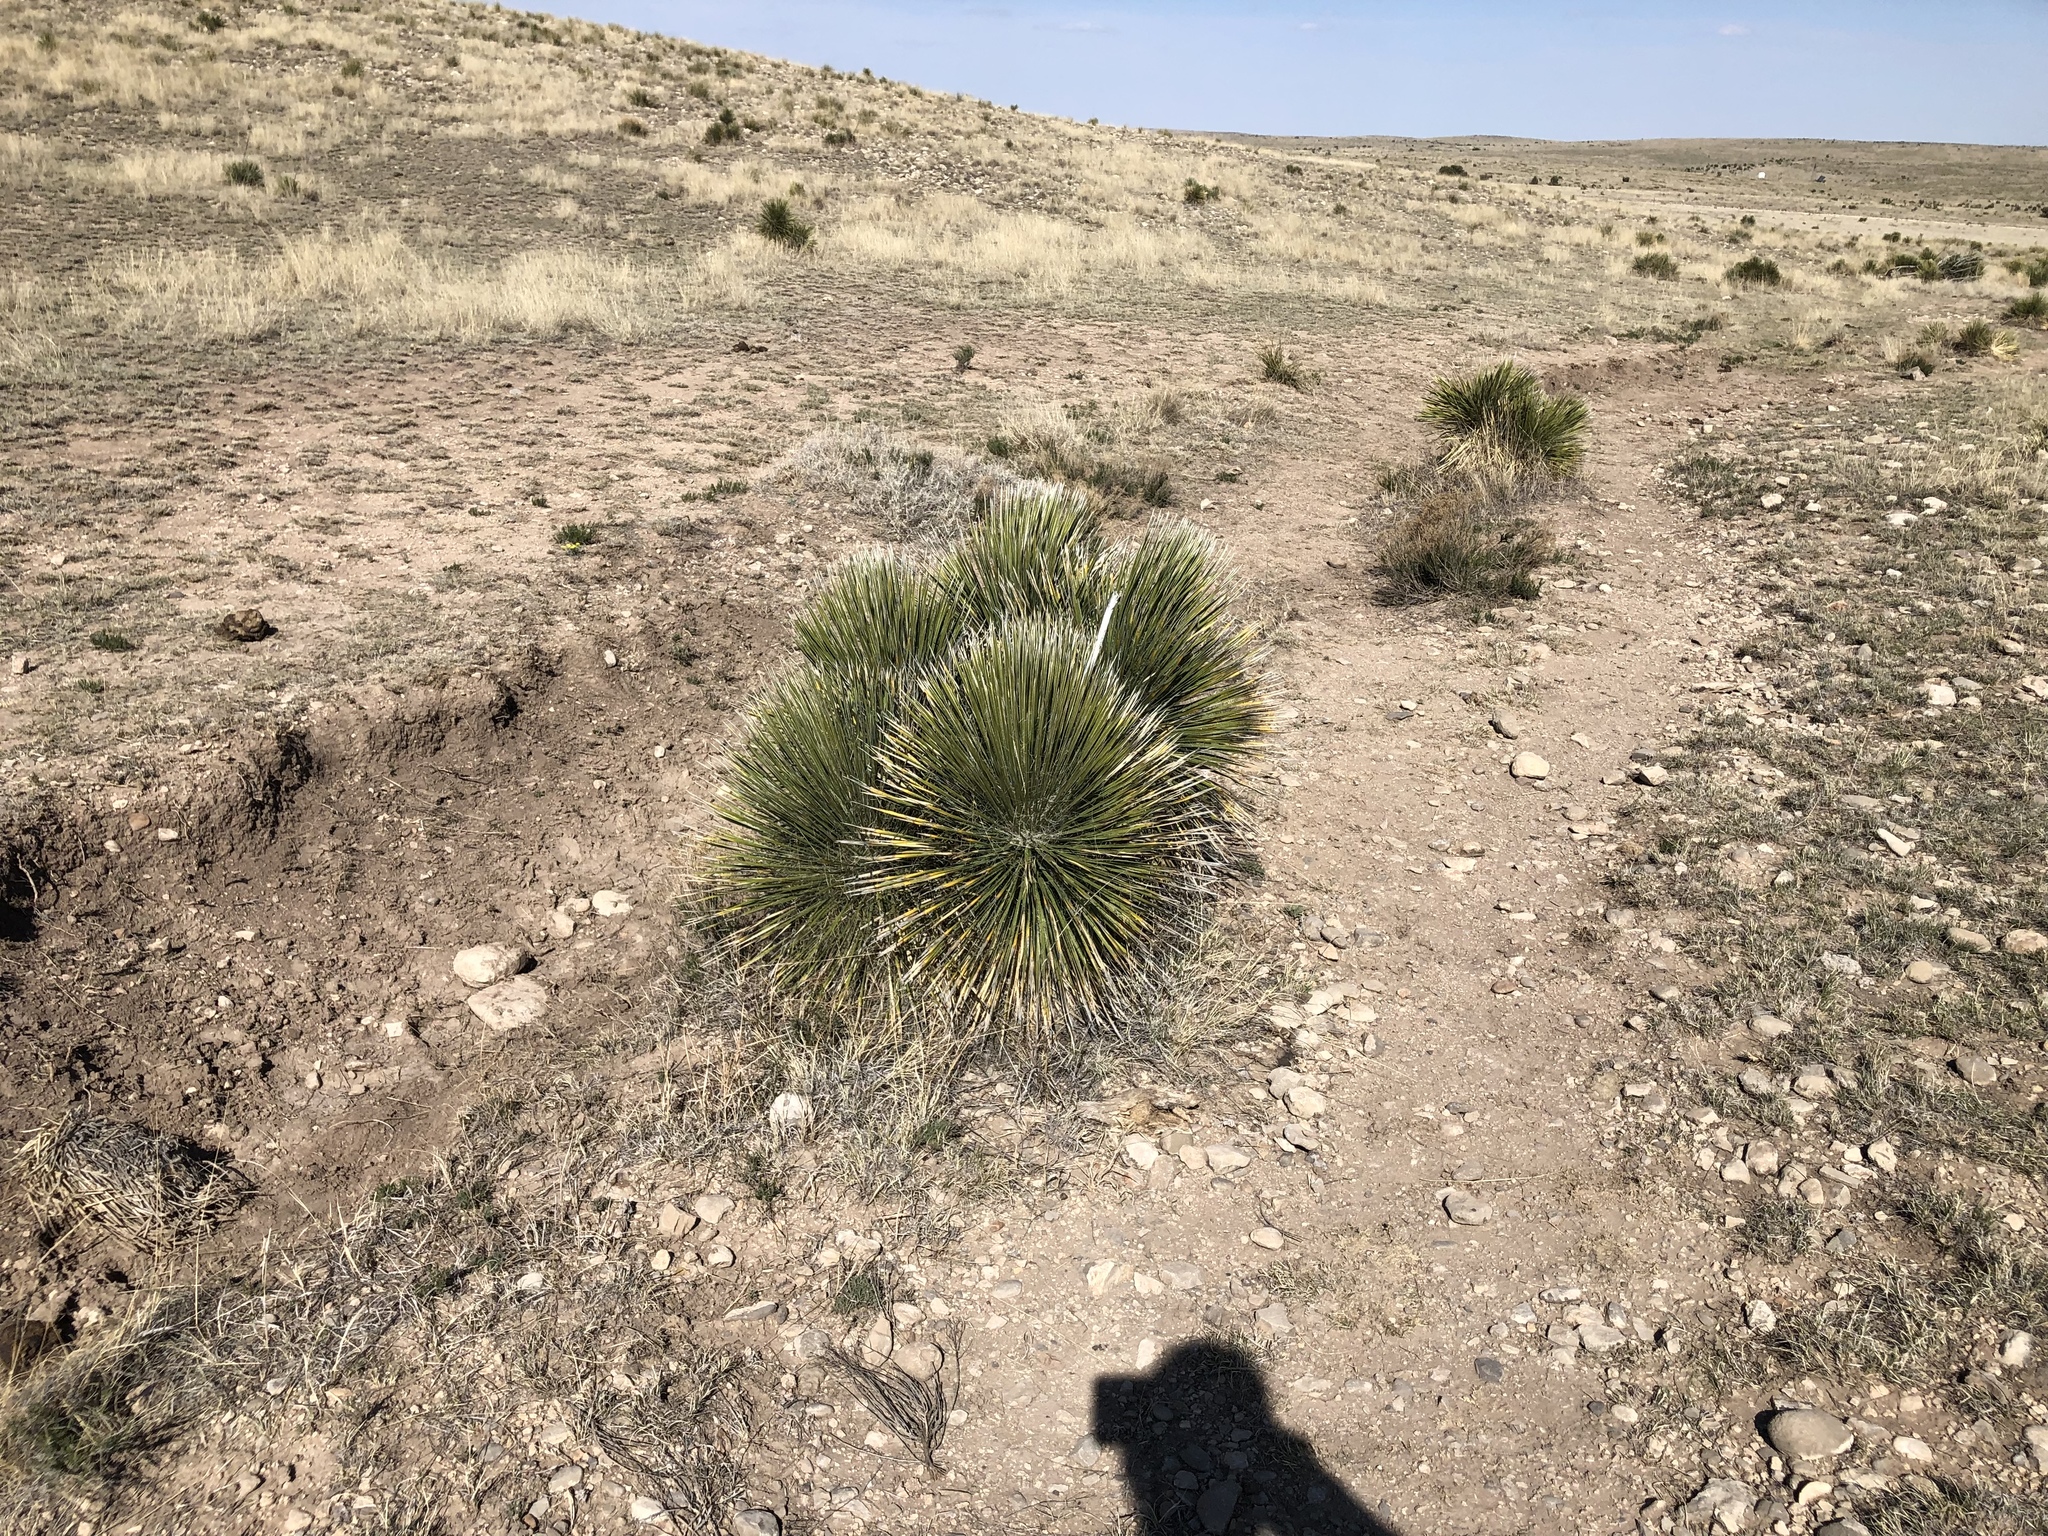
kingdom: Plantae
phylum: Tracheophyta
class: Liliopsida
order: Asparagales
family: Asparagaceae
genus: Yucca
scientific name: Yucca elata
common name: Palmella
